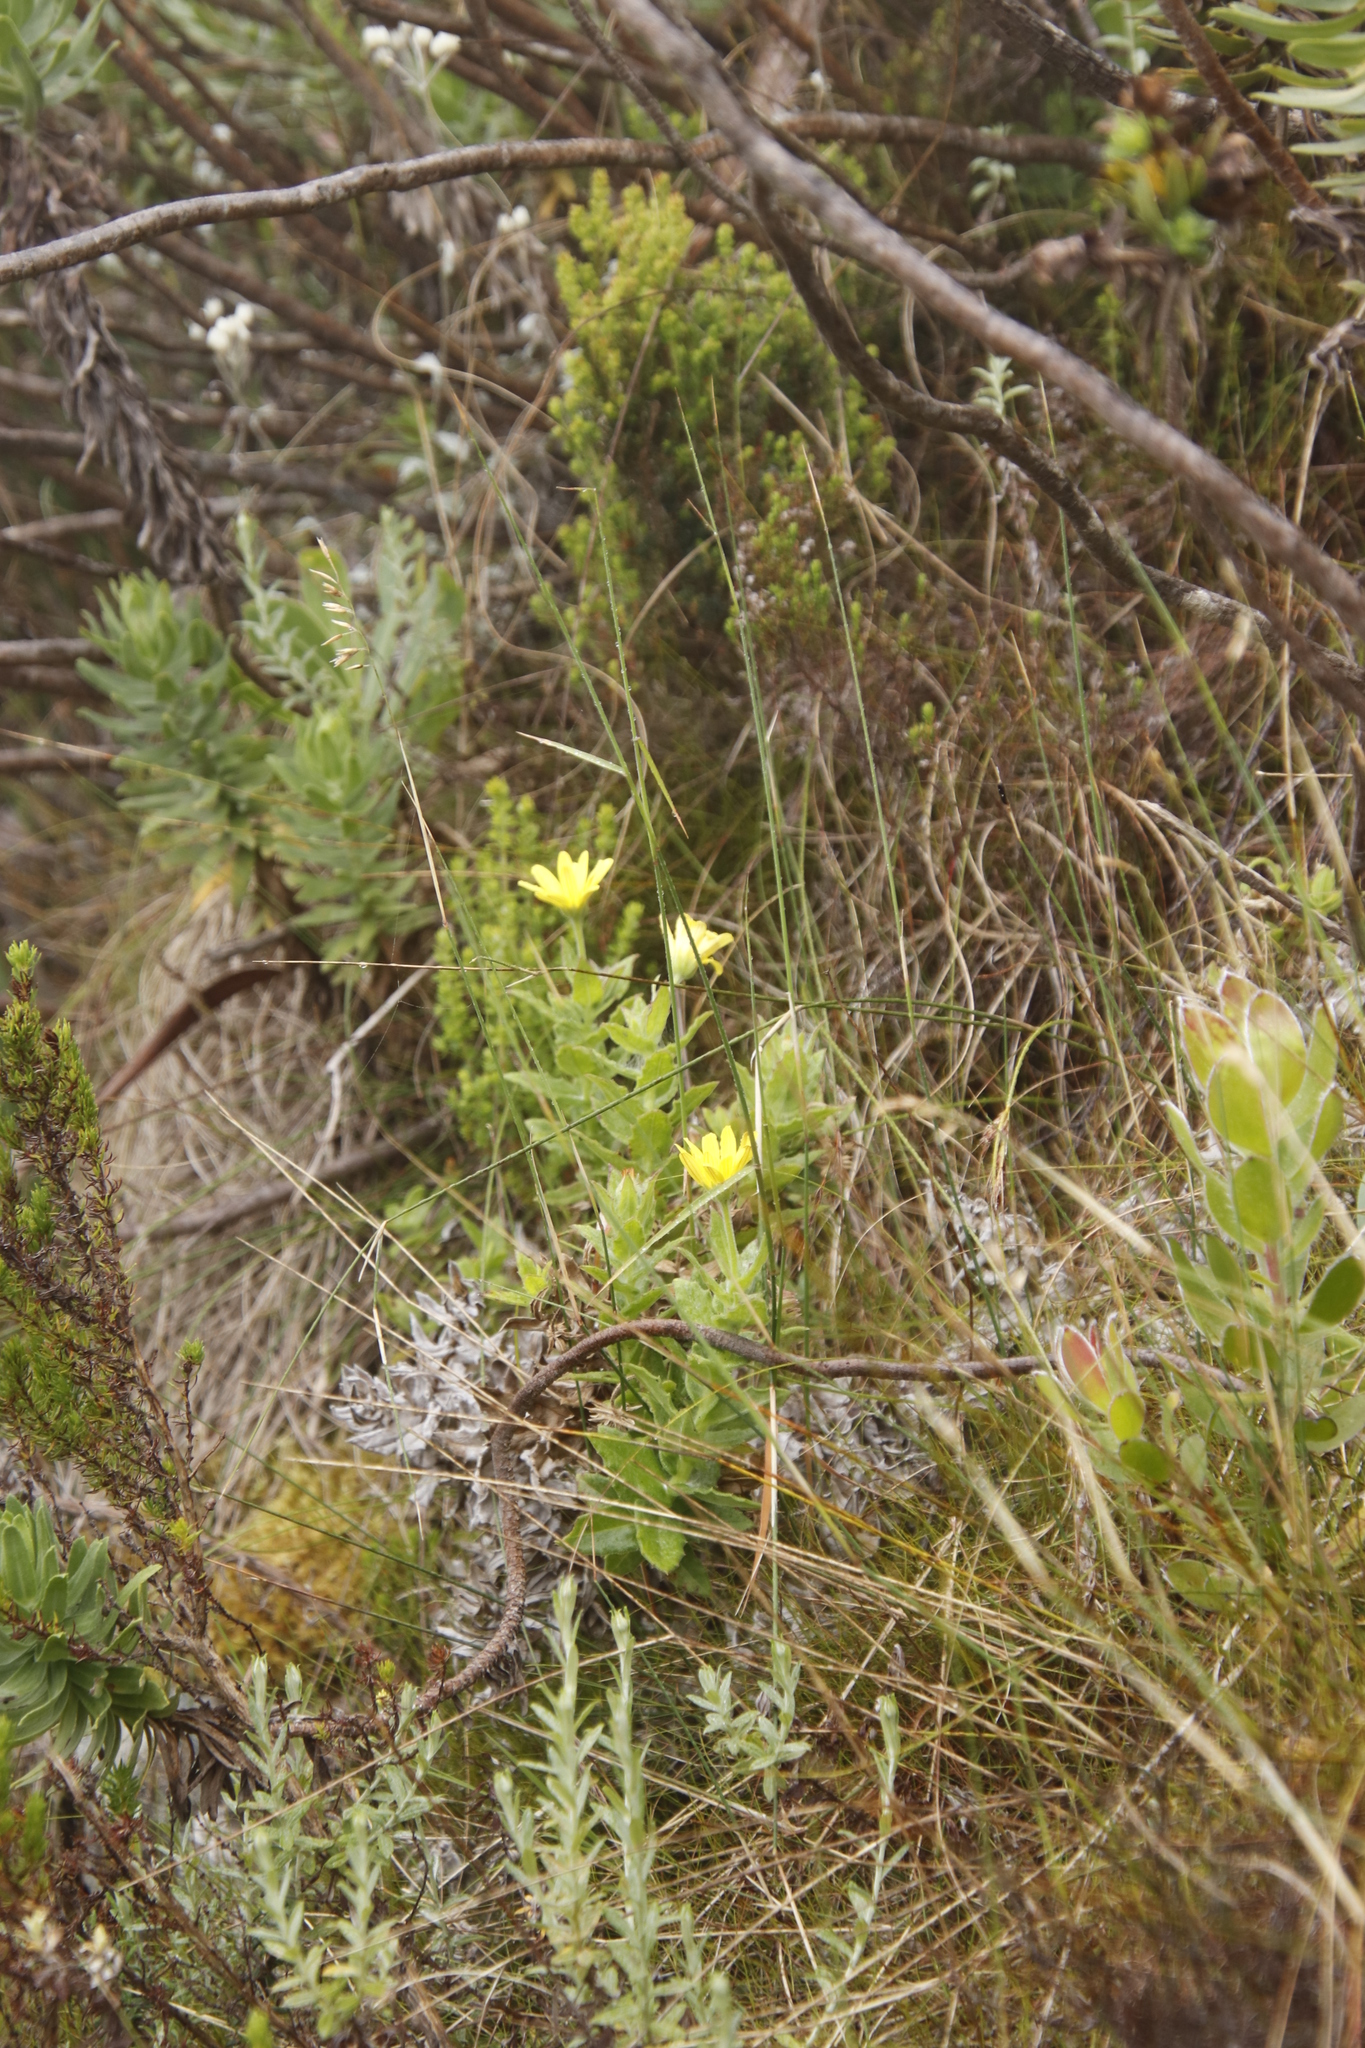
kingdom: Plantae
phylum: Tracheophyta
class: Magnoliopsida
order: Asterales
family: Asteraceae
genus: Osteospermum
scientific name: Osteospermum ilicifolium
